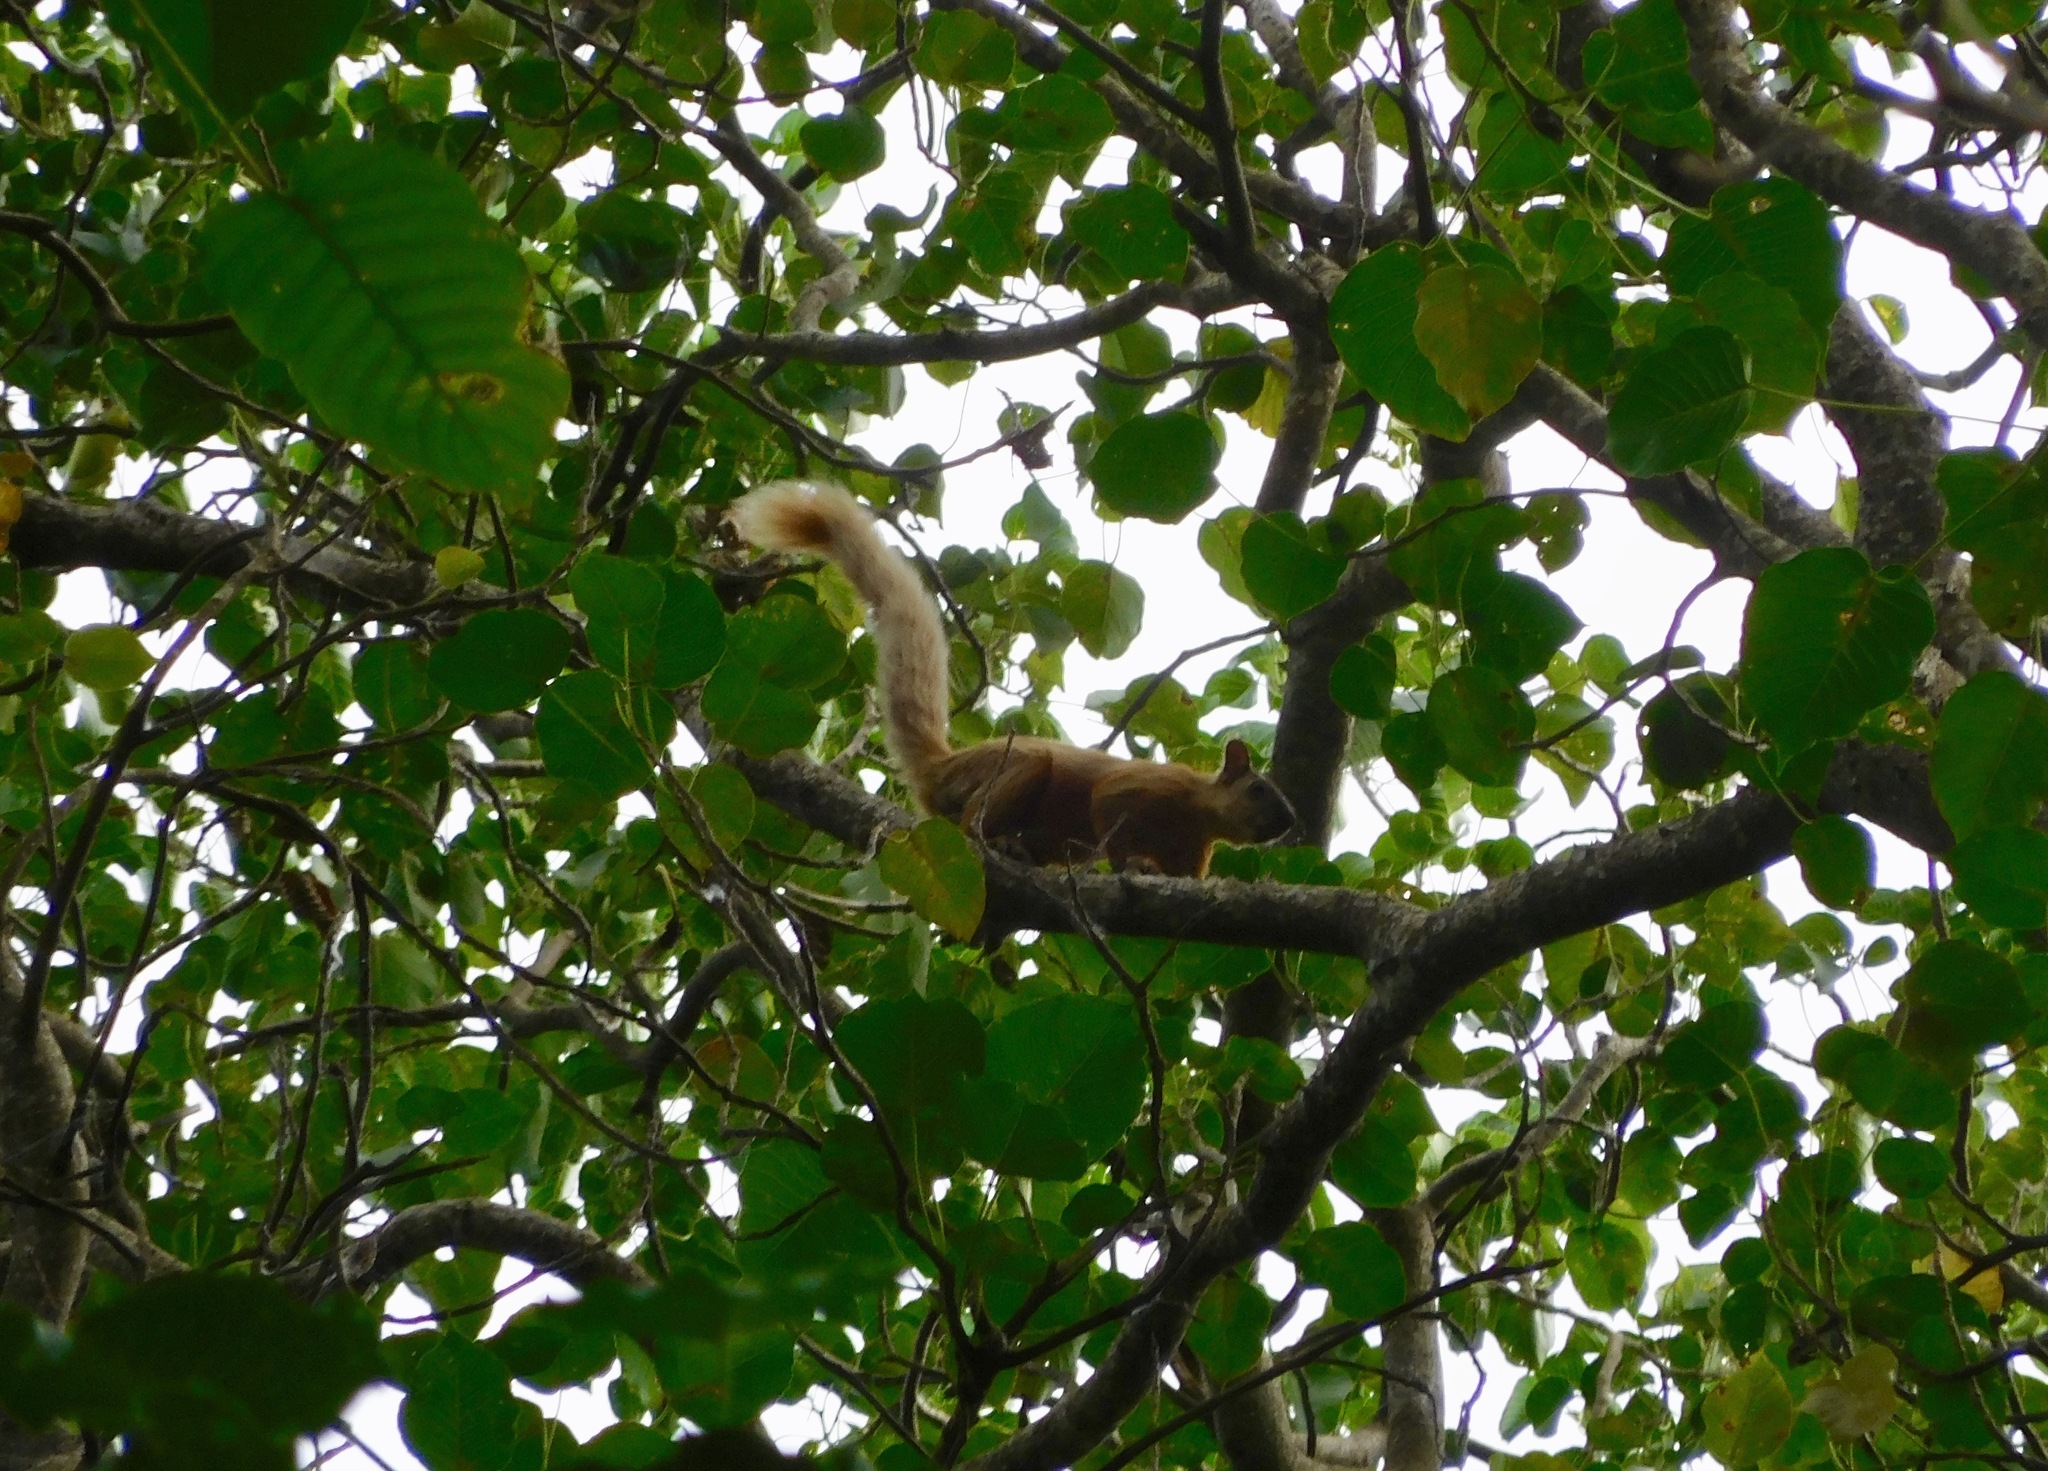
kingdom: Animalia
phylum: Chordata
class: Mammalia
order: Rodentia
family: Sciuridae
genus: Sciurus
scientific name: Sciurus variegatoides
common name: Variegated squirrel
